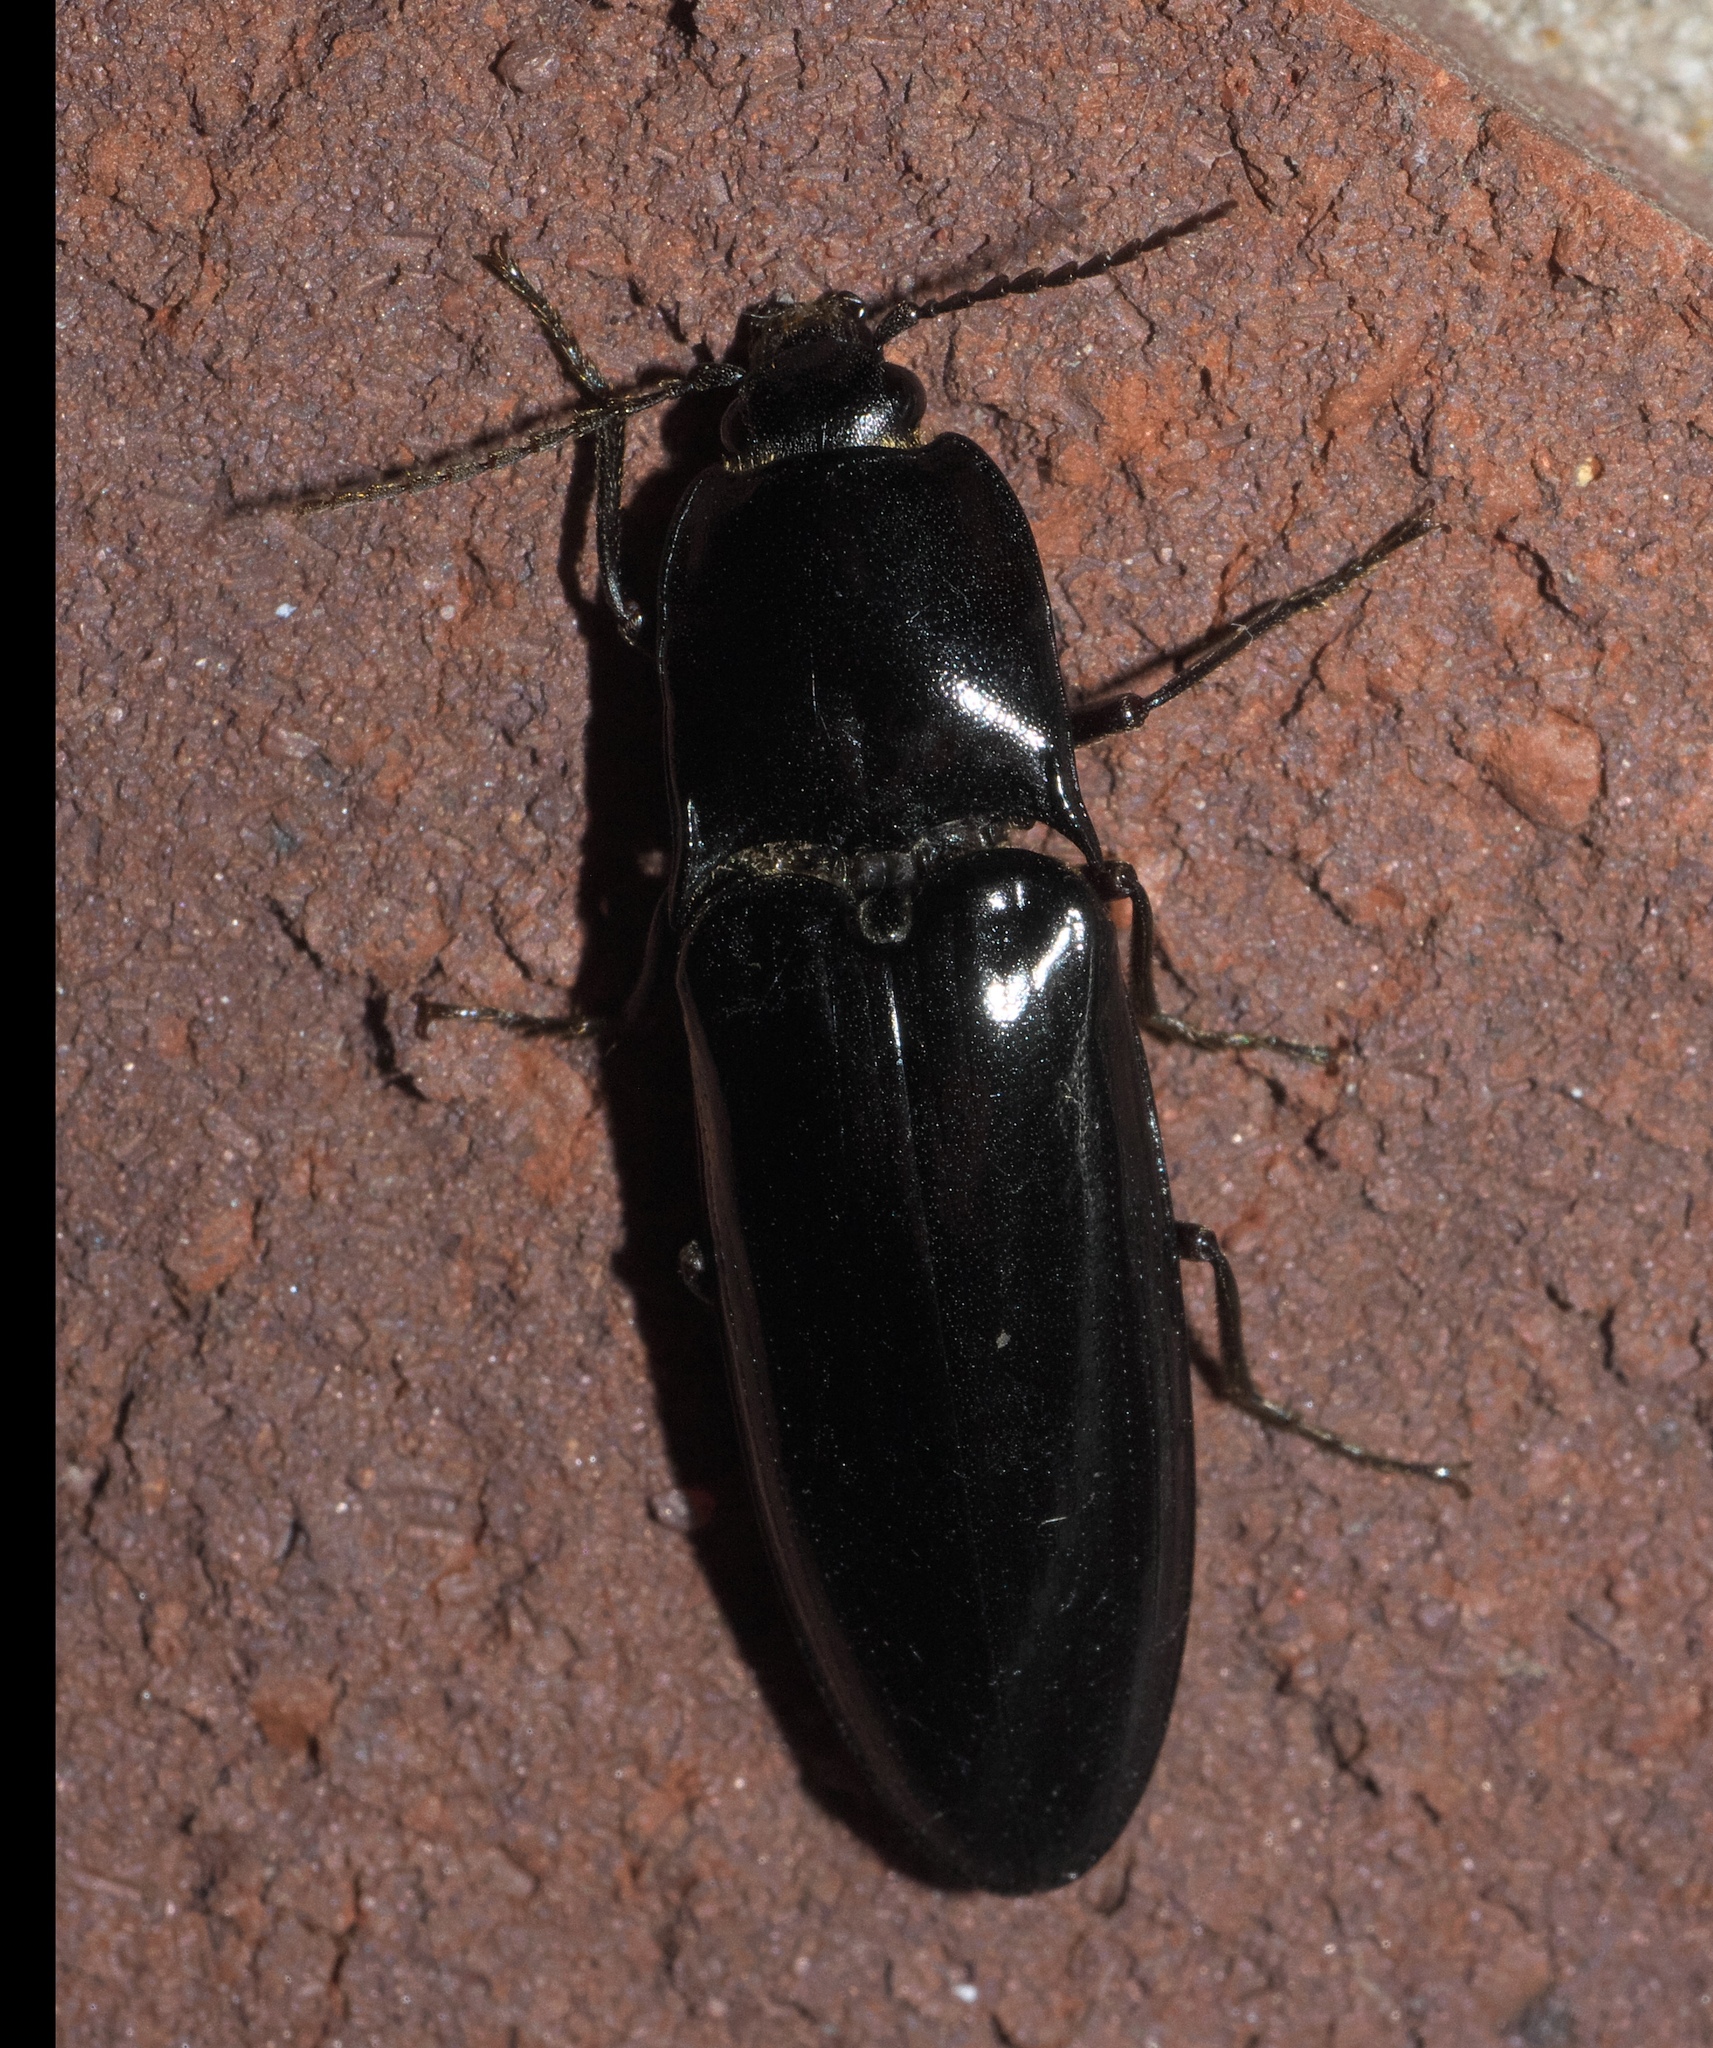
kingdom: Animalia
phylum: Arthropoda
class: Insecta
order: Coleoptera
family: Elateridae
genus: Melanactes
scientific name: Melanactes piceus
